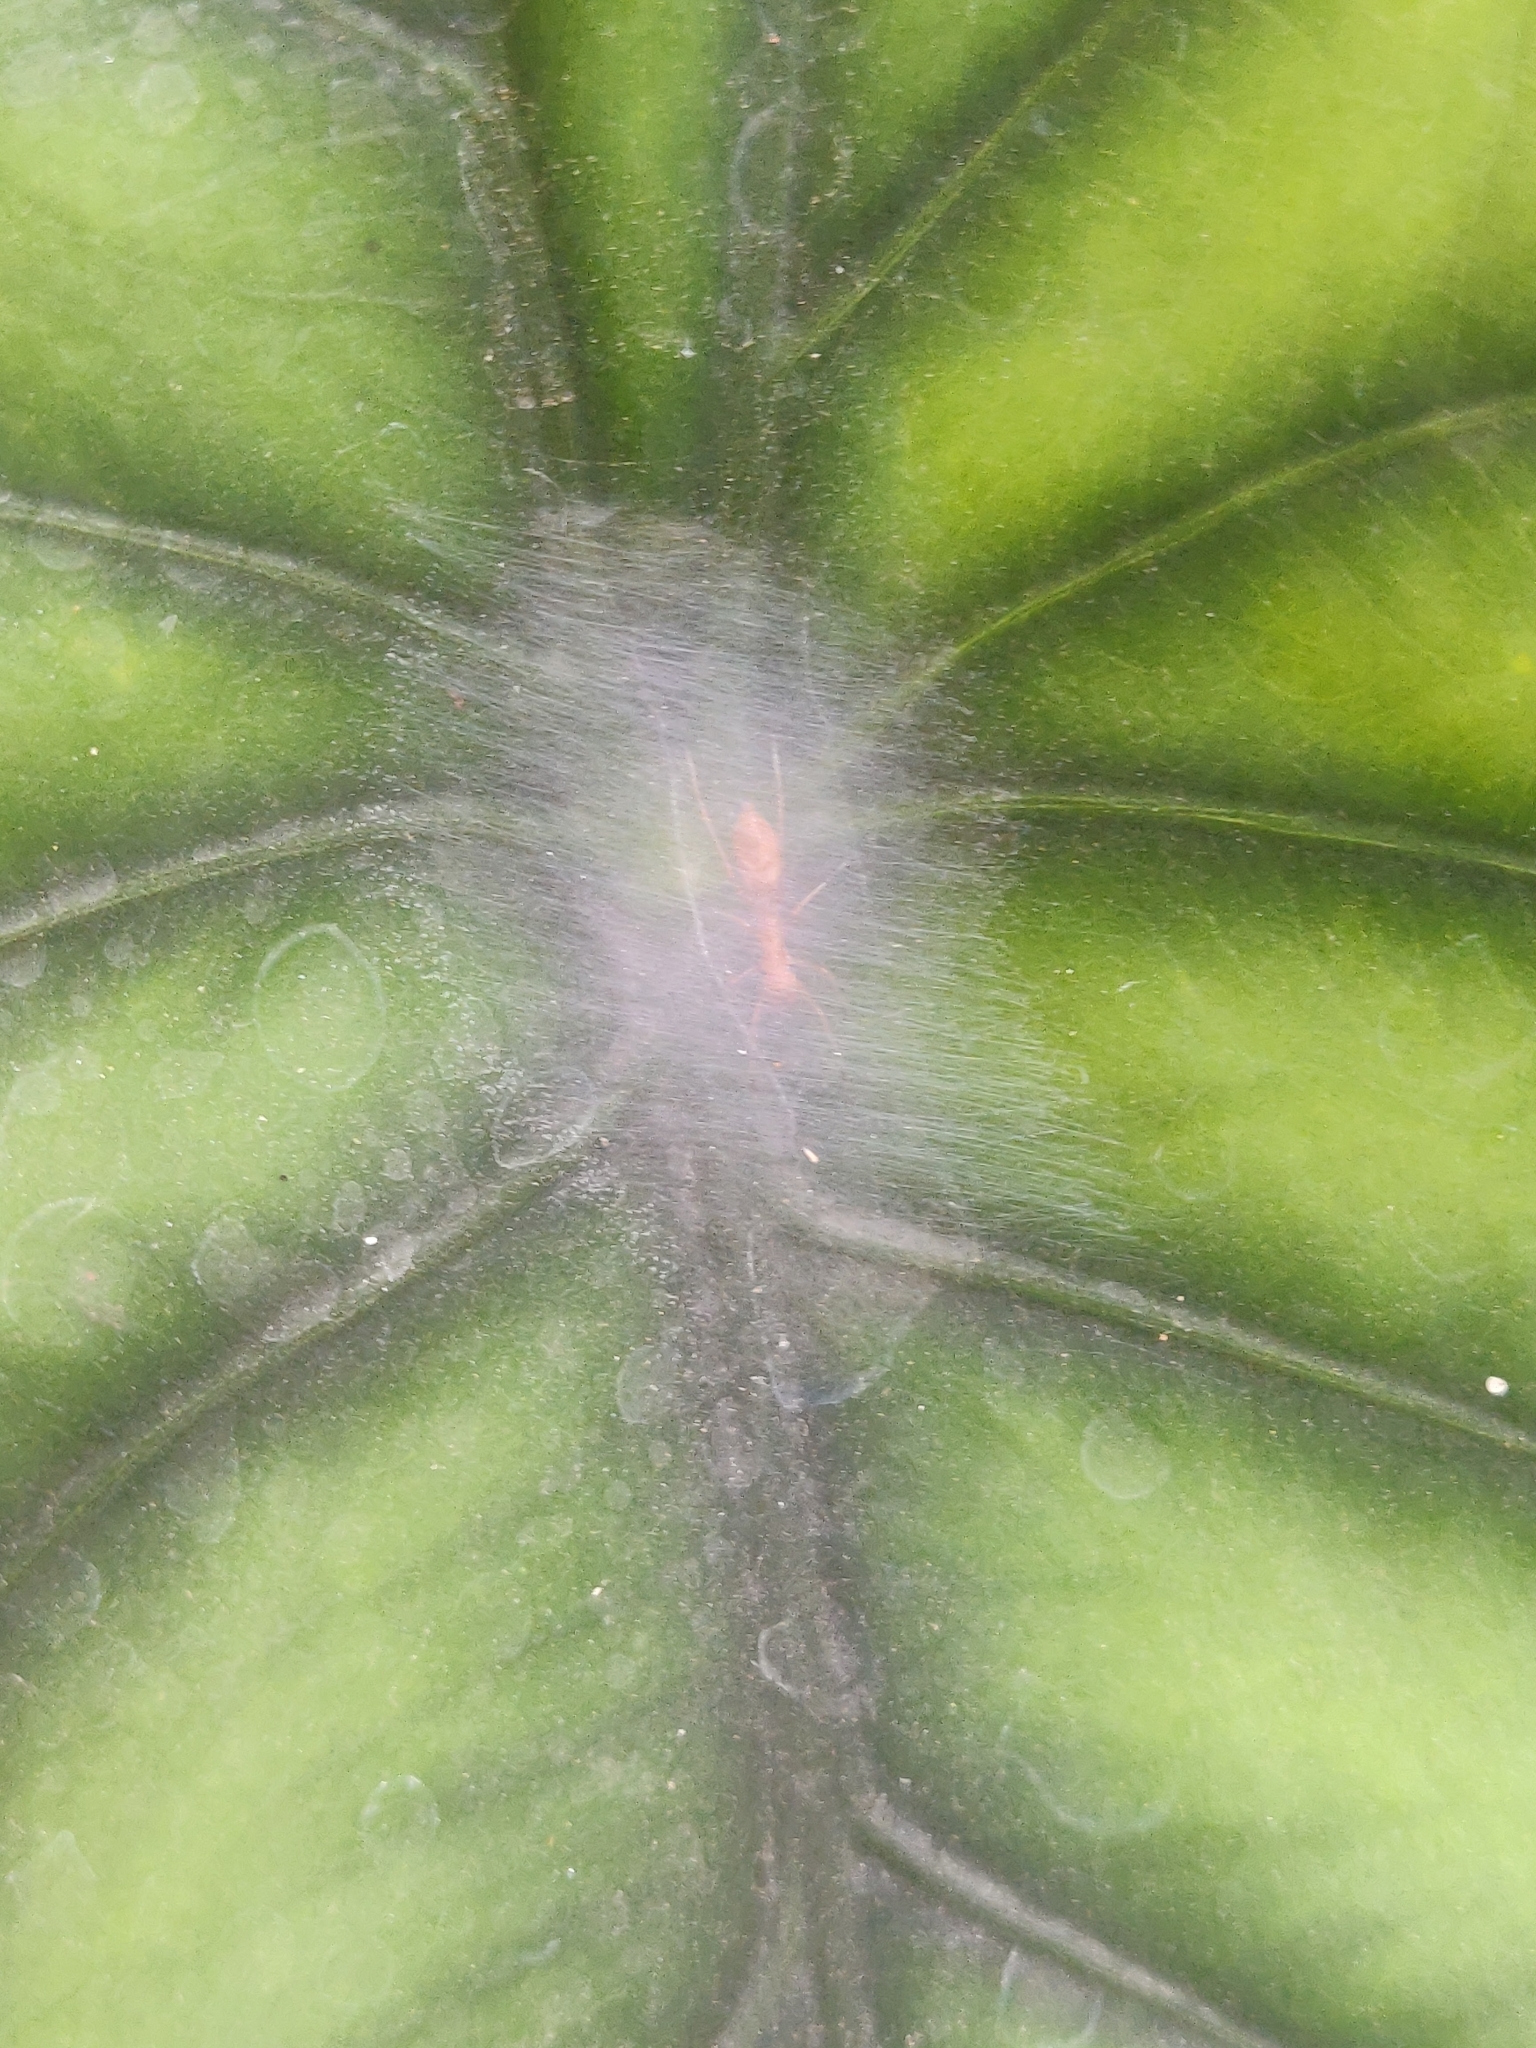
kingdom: Animalia
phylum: Arthropoda
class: Arachnida
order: Araneae
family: Salticidae
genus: Myrmaplata
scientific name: Myrmaplata plataleoides
